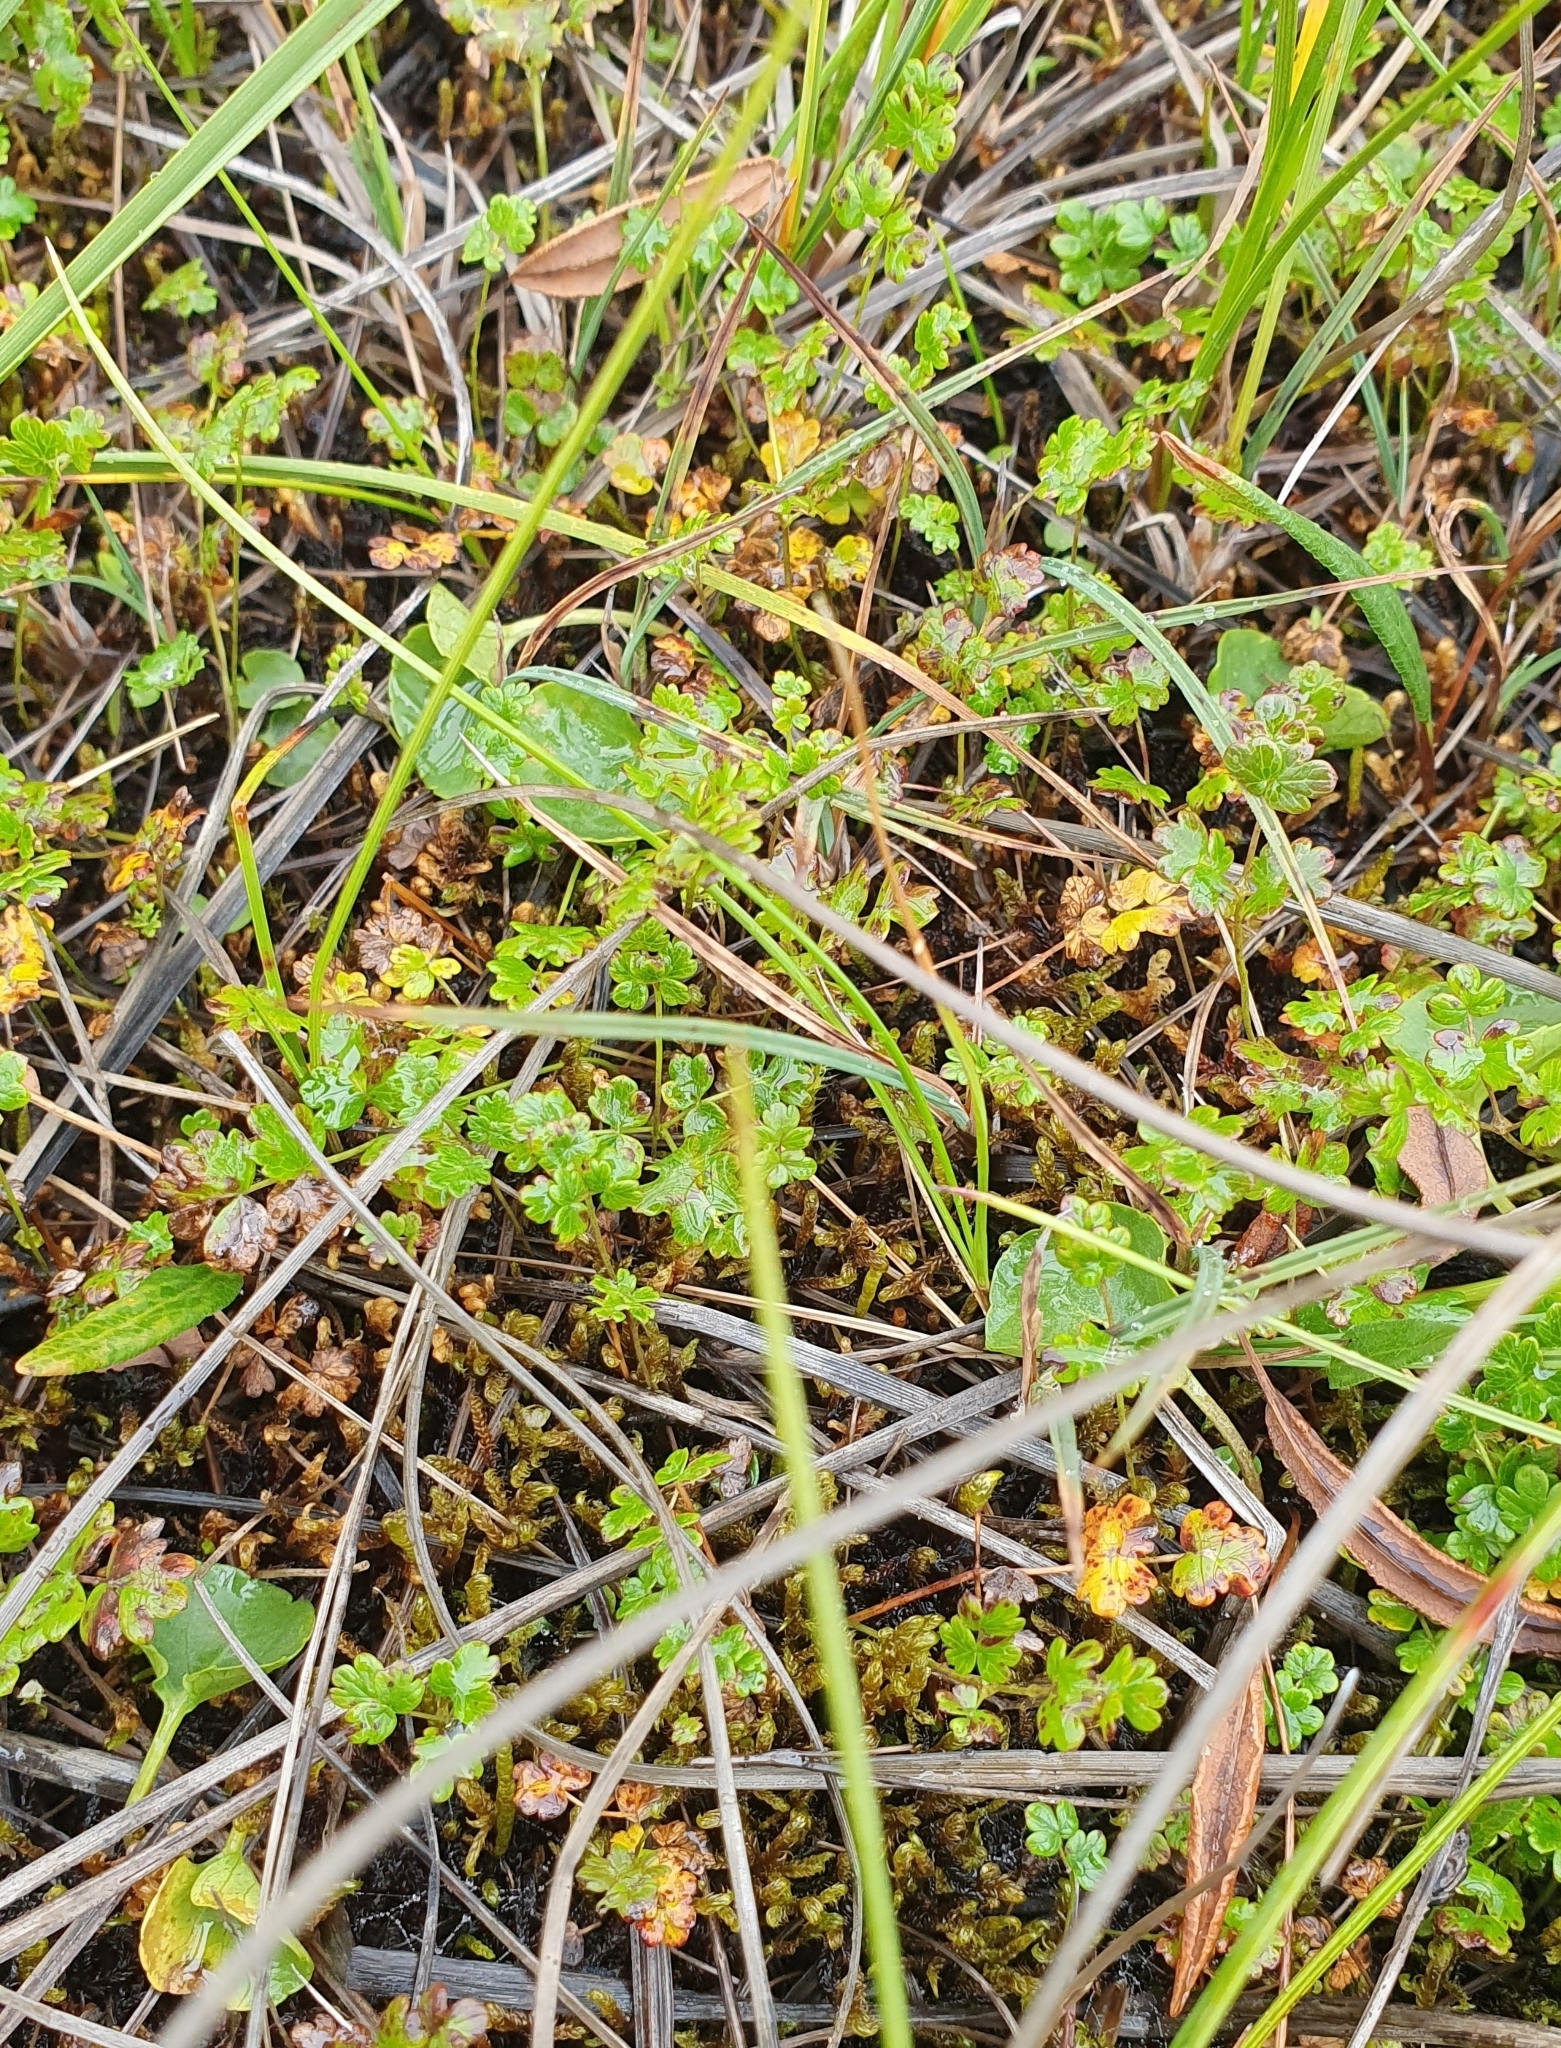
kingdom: Plantae
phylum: Tracheophyta
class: Magnoliopsida
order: Ranunculales
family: Ranunculaceae
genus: Thalictrum
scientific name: Thalictrum alpinum
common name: Alpine meadow-rue
